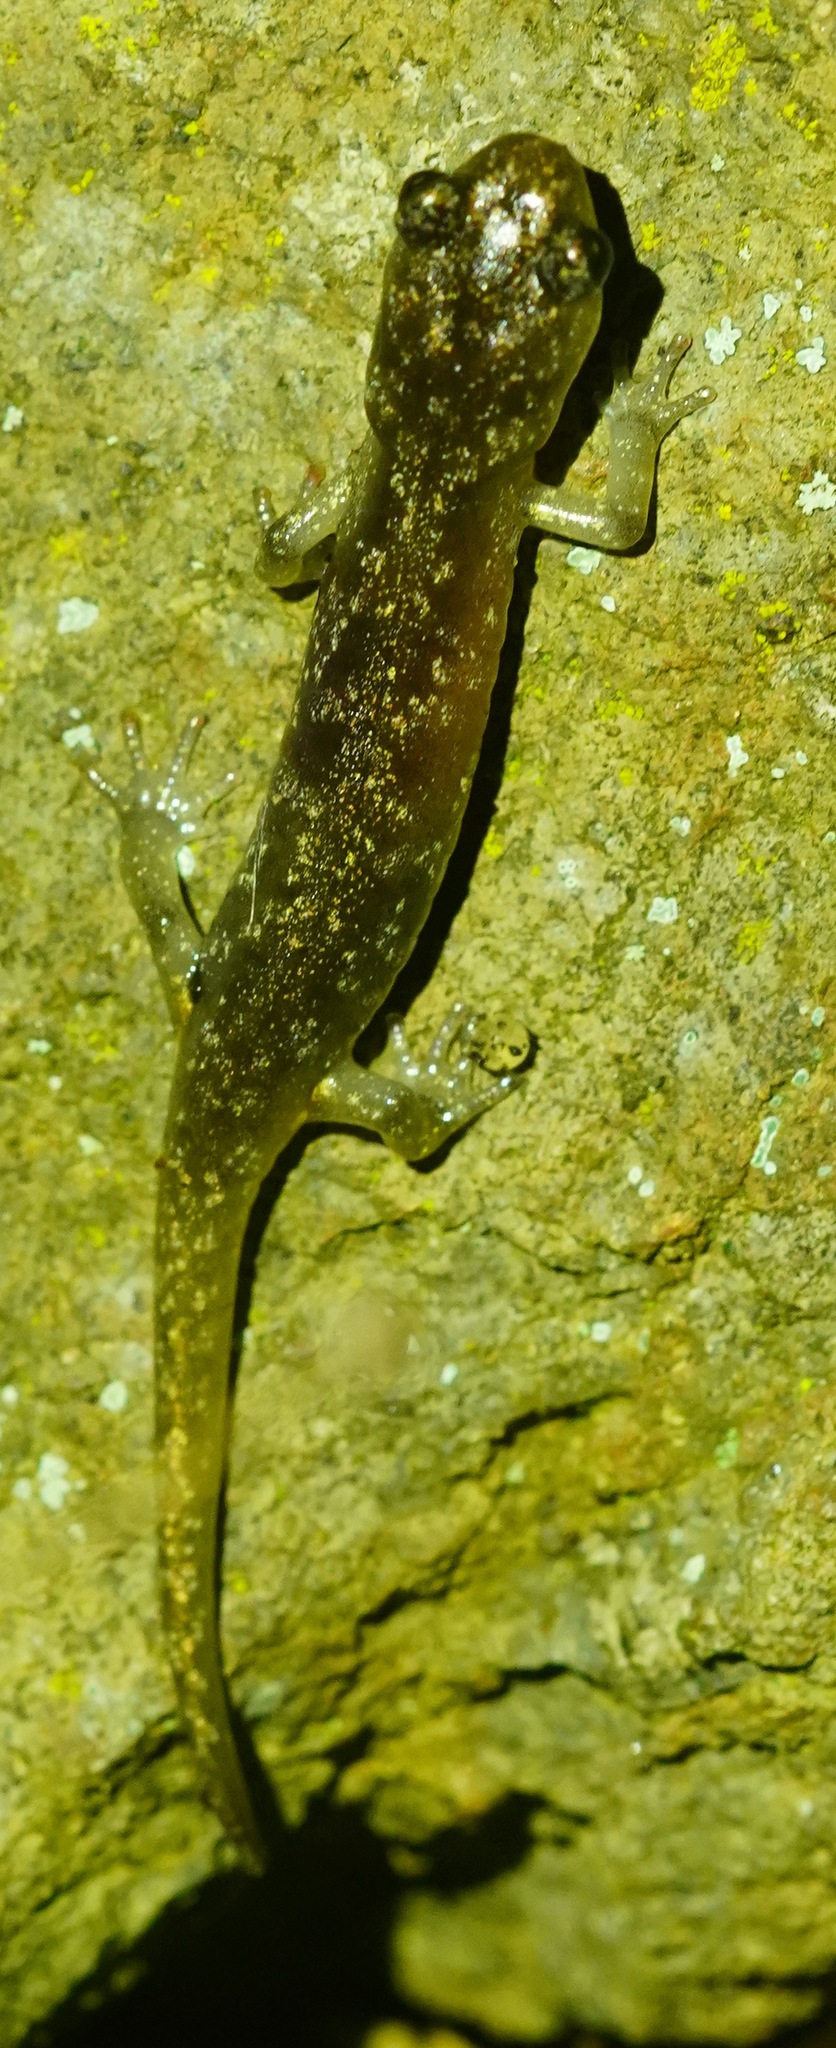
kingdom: Animalia
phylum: Chordata
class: Amphibia
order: Caudata
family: Plethodontidae
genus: Aneides
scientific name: Aneides lugubris
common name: Arboreal salamander
